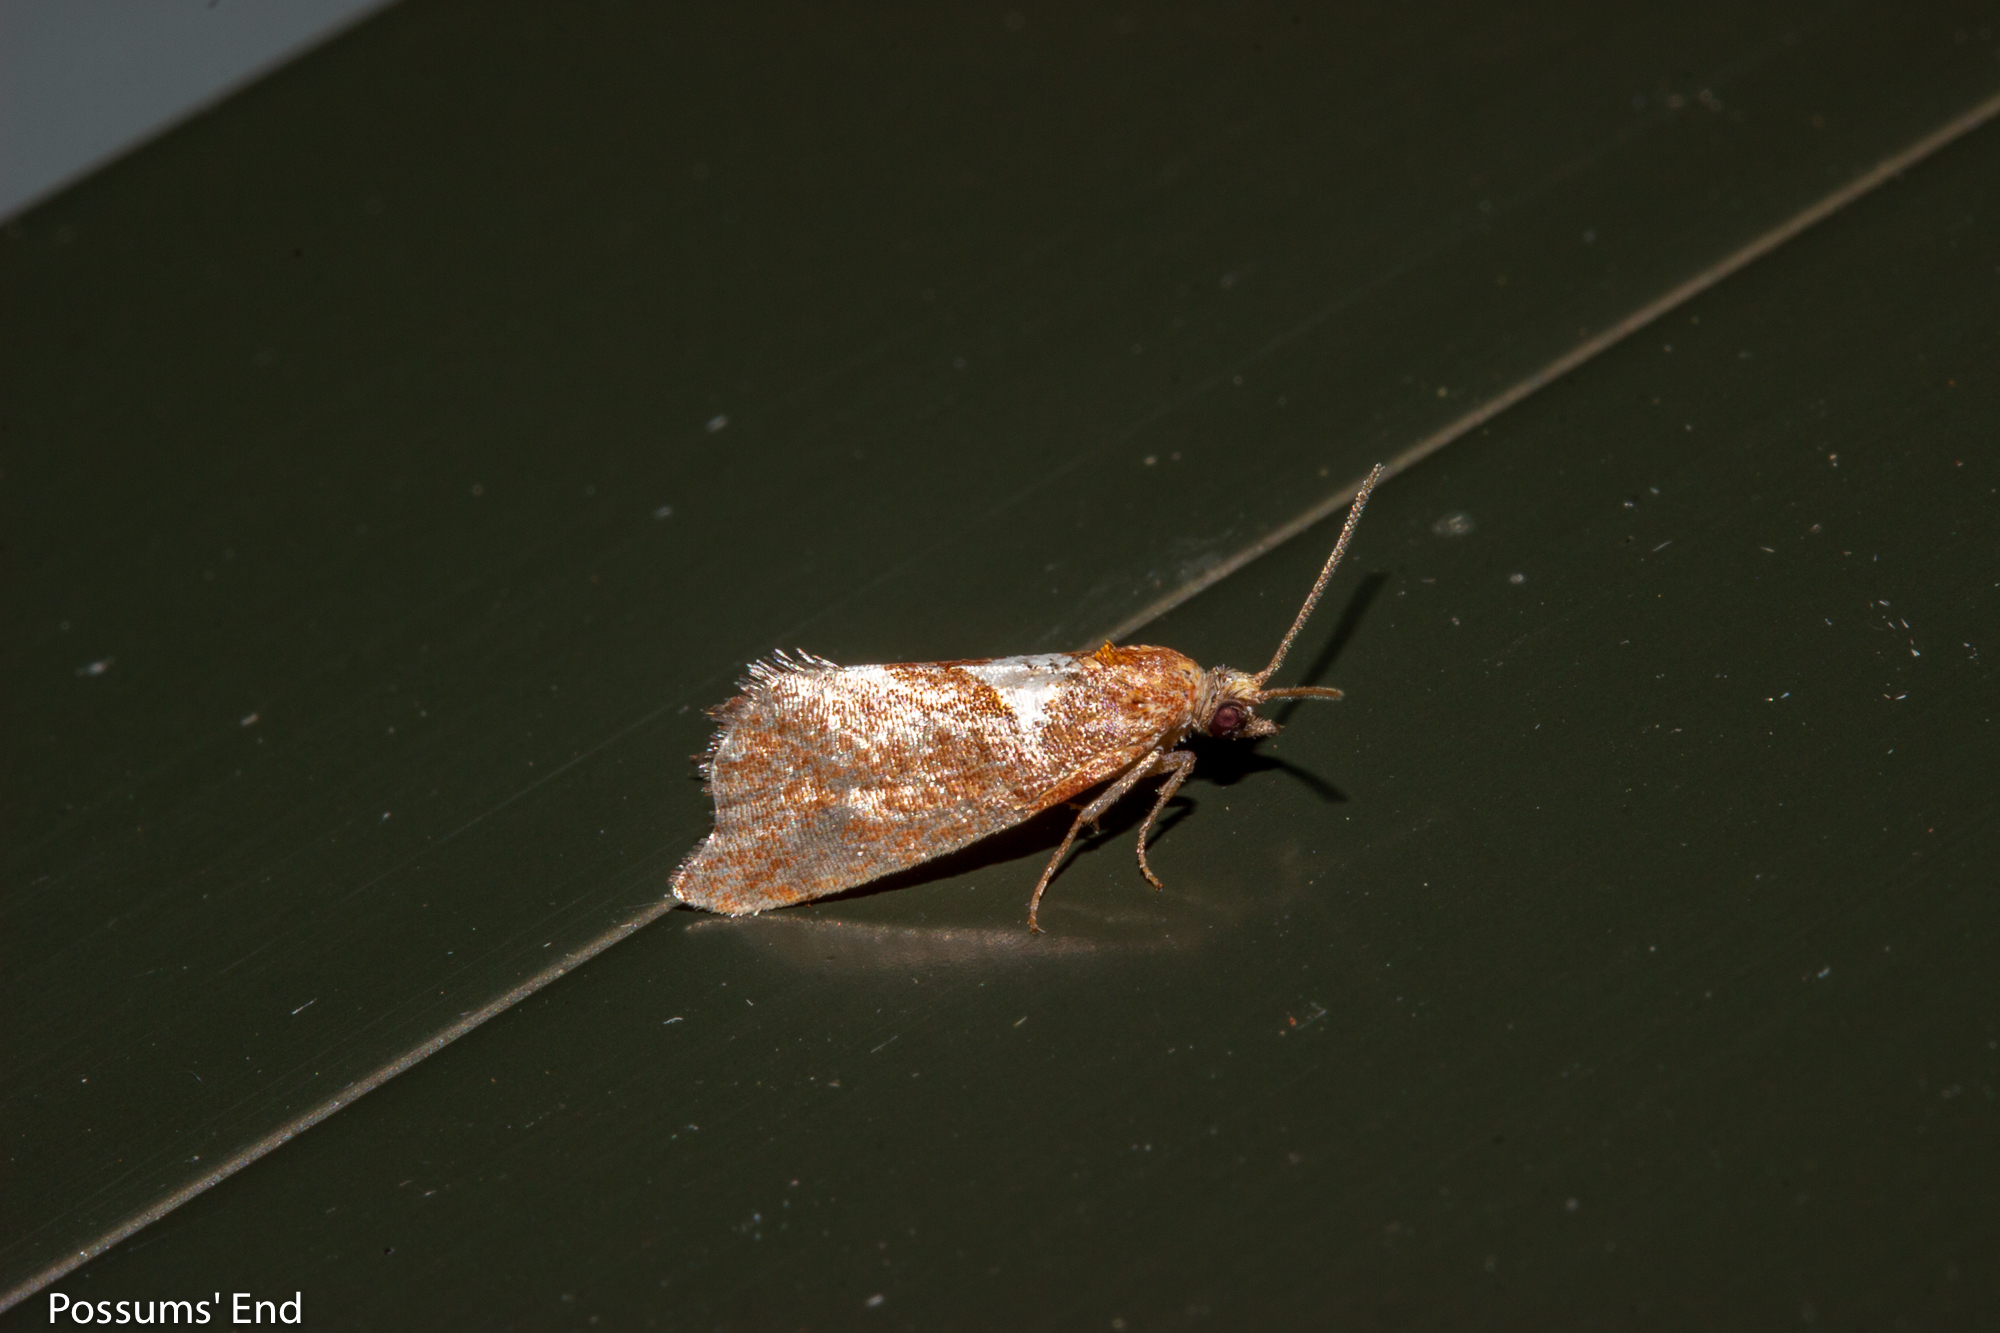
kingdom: Animalia
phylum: Arthropoda
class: Insecta
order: Lepidoptera
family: Tortricidae
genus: Pyrgotis
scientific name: Pyrgotis pyramidias
